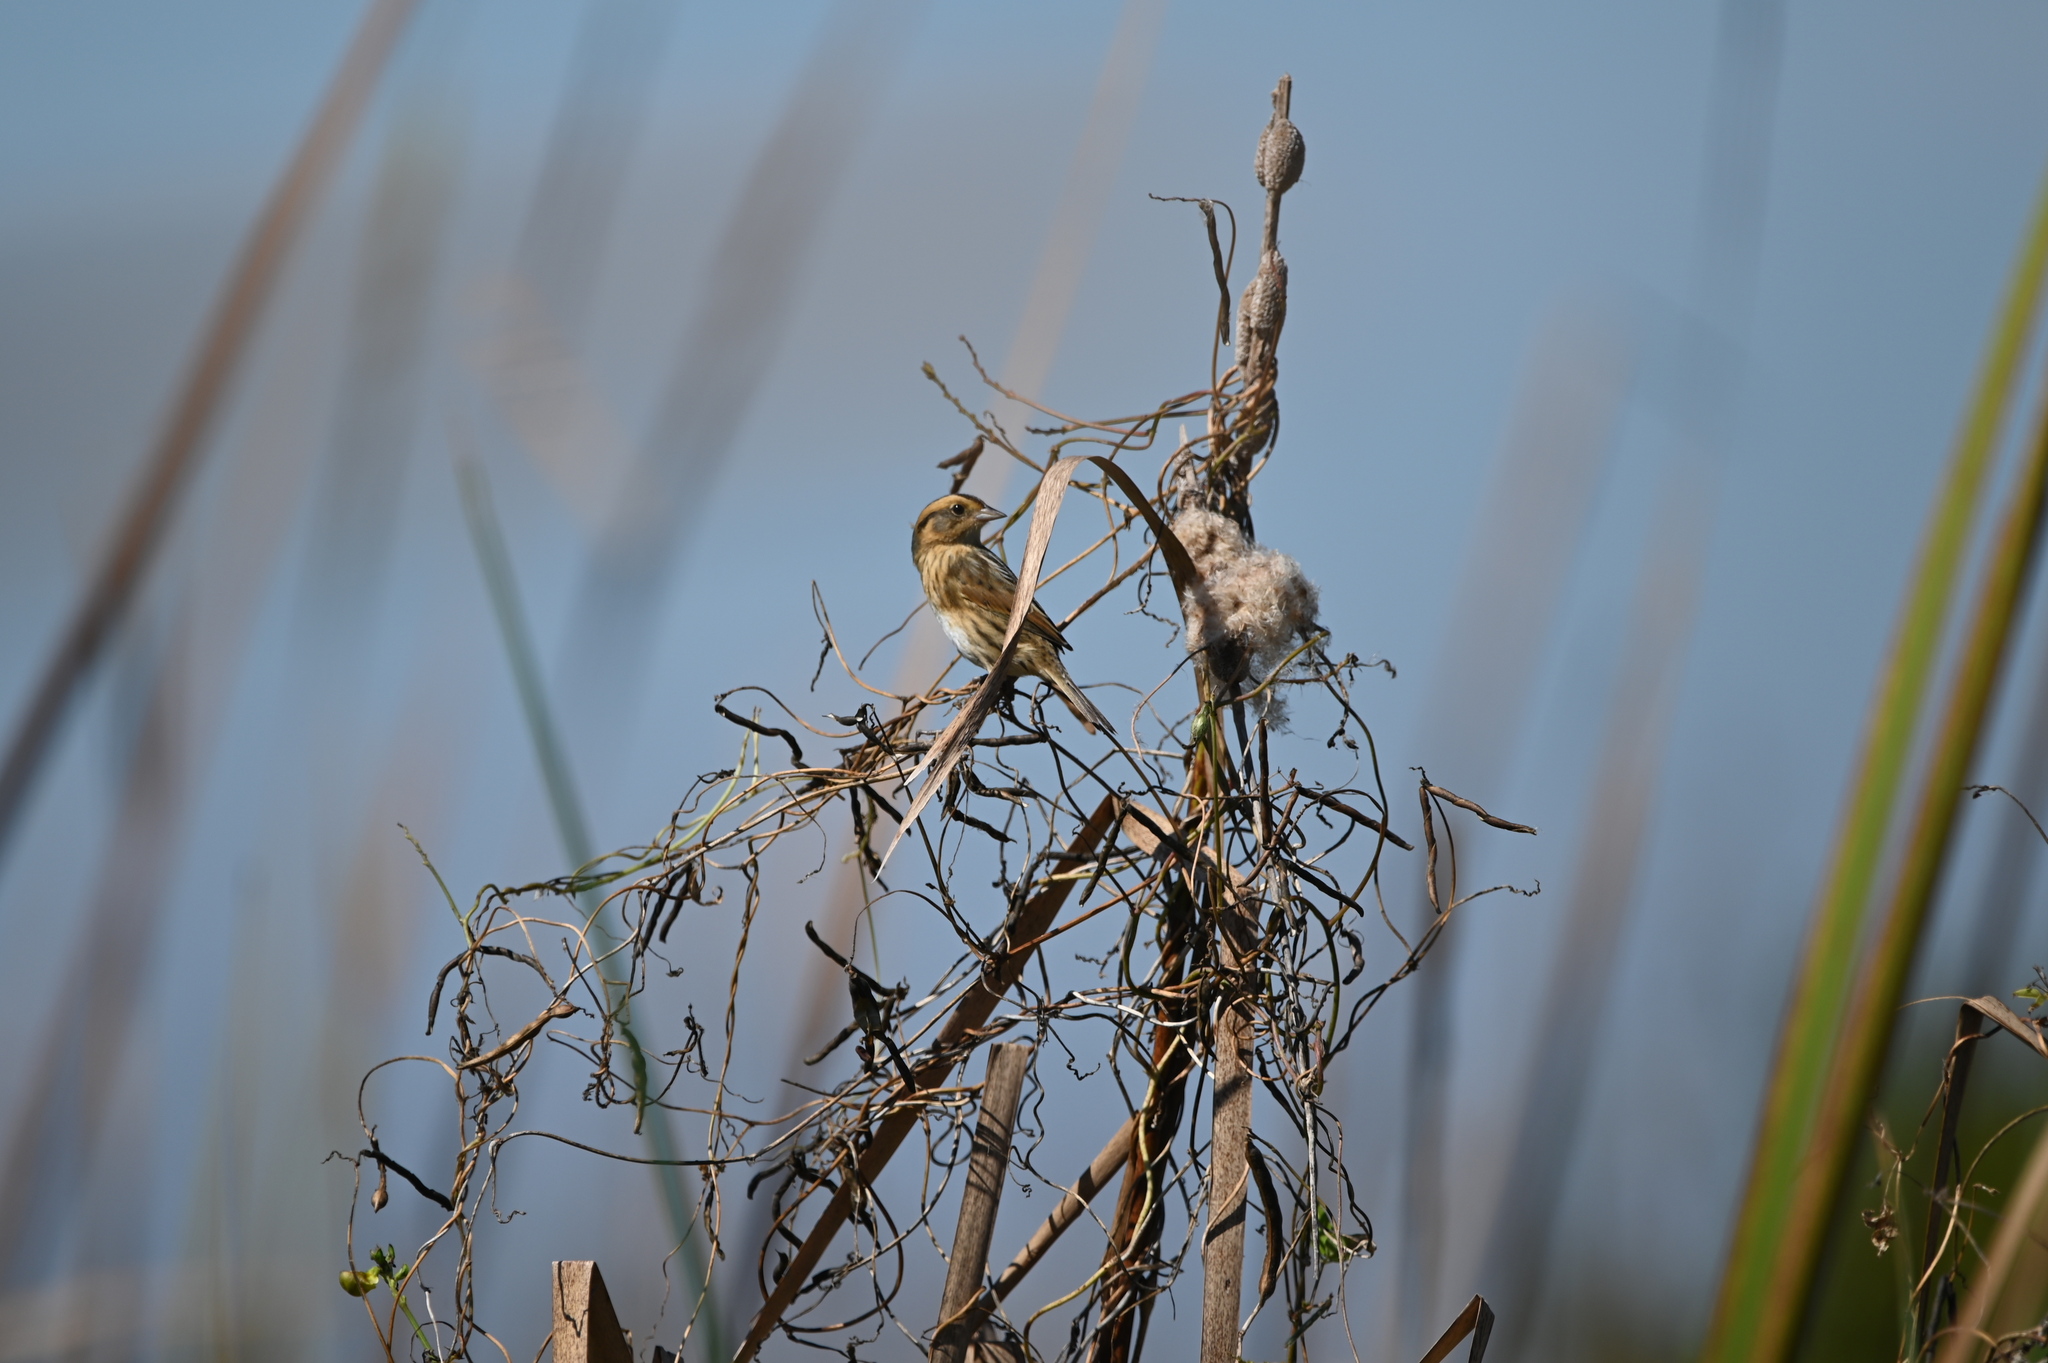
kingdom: Animalia
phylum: Chordata
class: Aves
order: Passeriformes
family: Passerellidae
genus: Ammospiza
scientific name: Ammospiza nelsoni
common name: Nelson's sparrow
